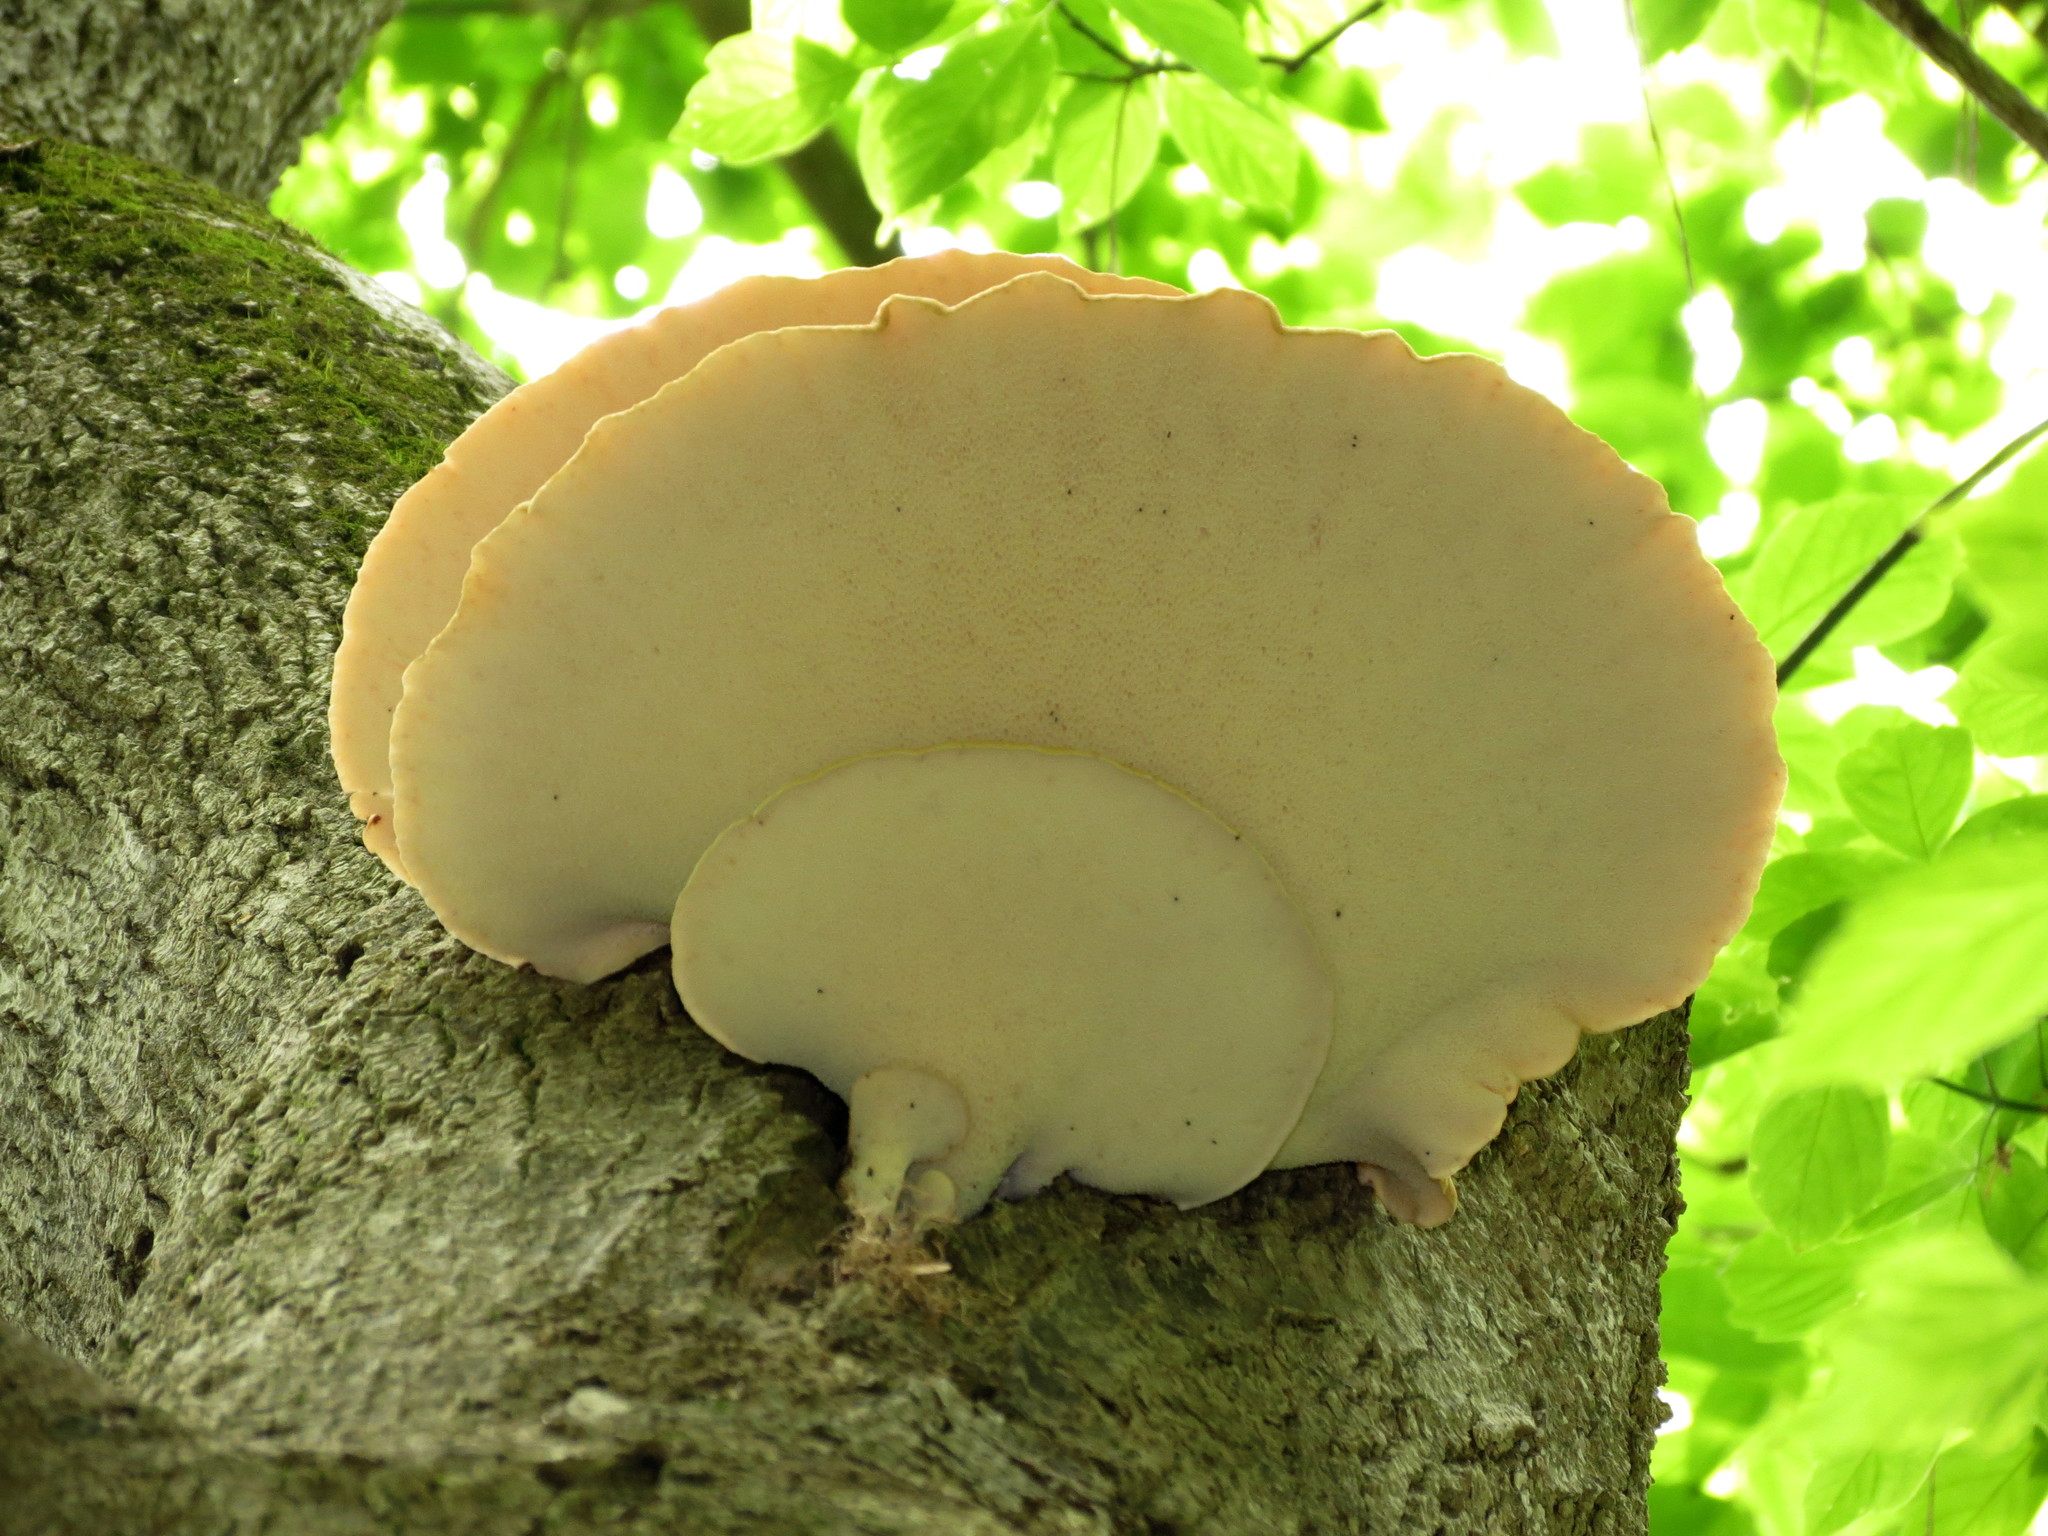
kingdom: Fungi
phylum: Basidiomycota
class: Agaricomycetes
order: Polyporales
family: Polyporaceae
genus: Cerioporus
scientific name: Cerioporus squamosus
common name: Dryad's saddle
